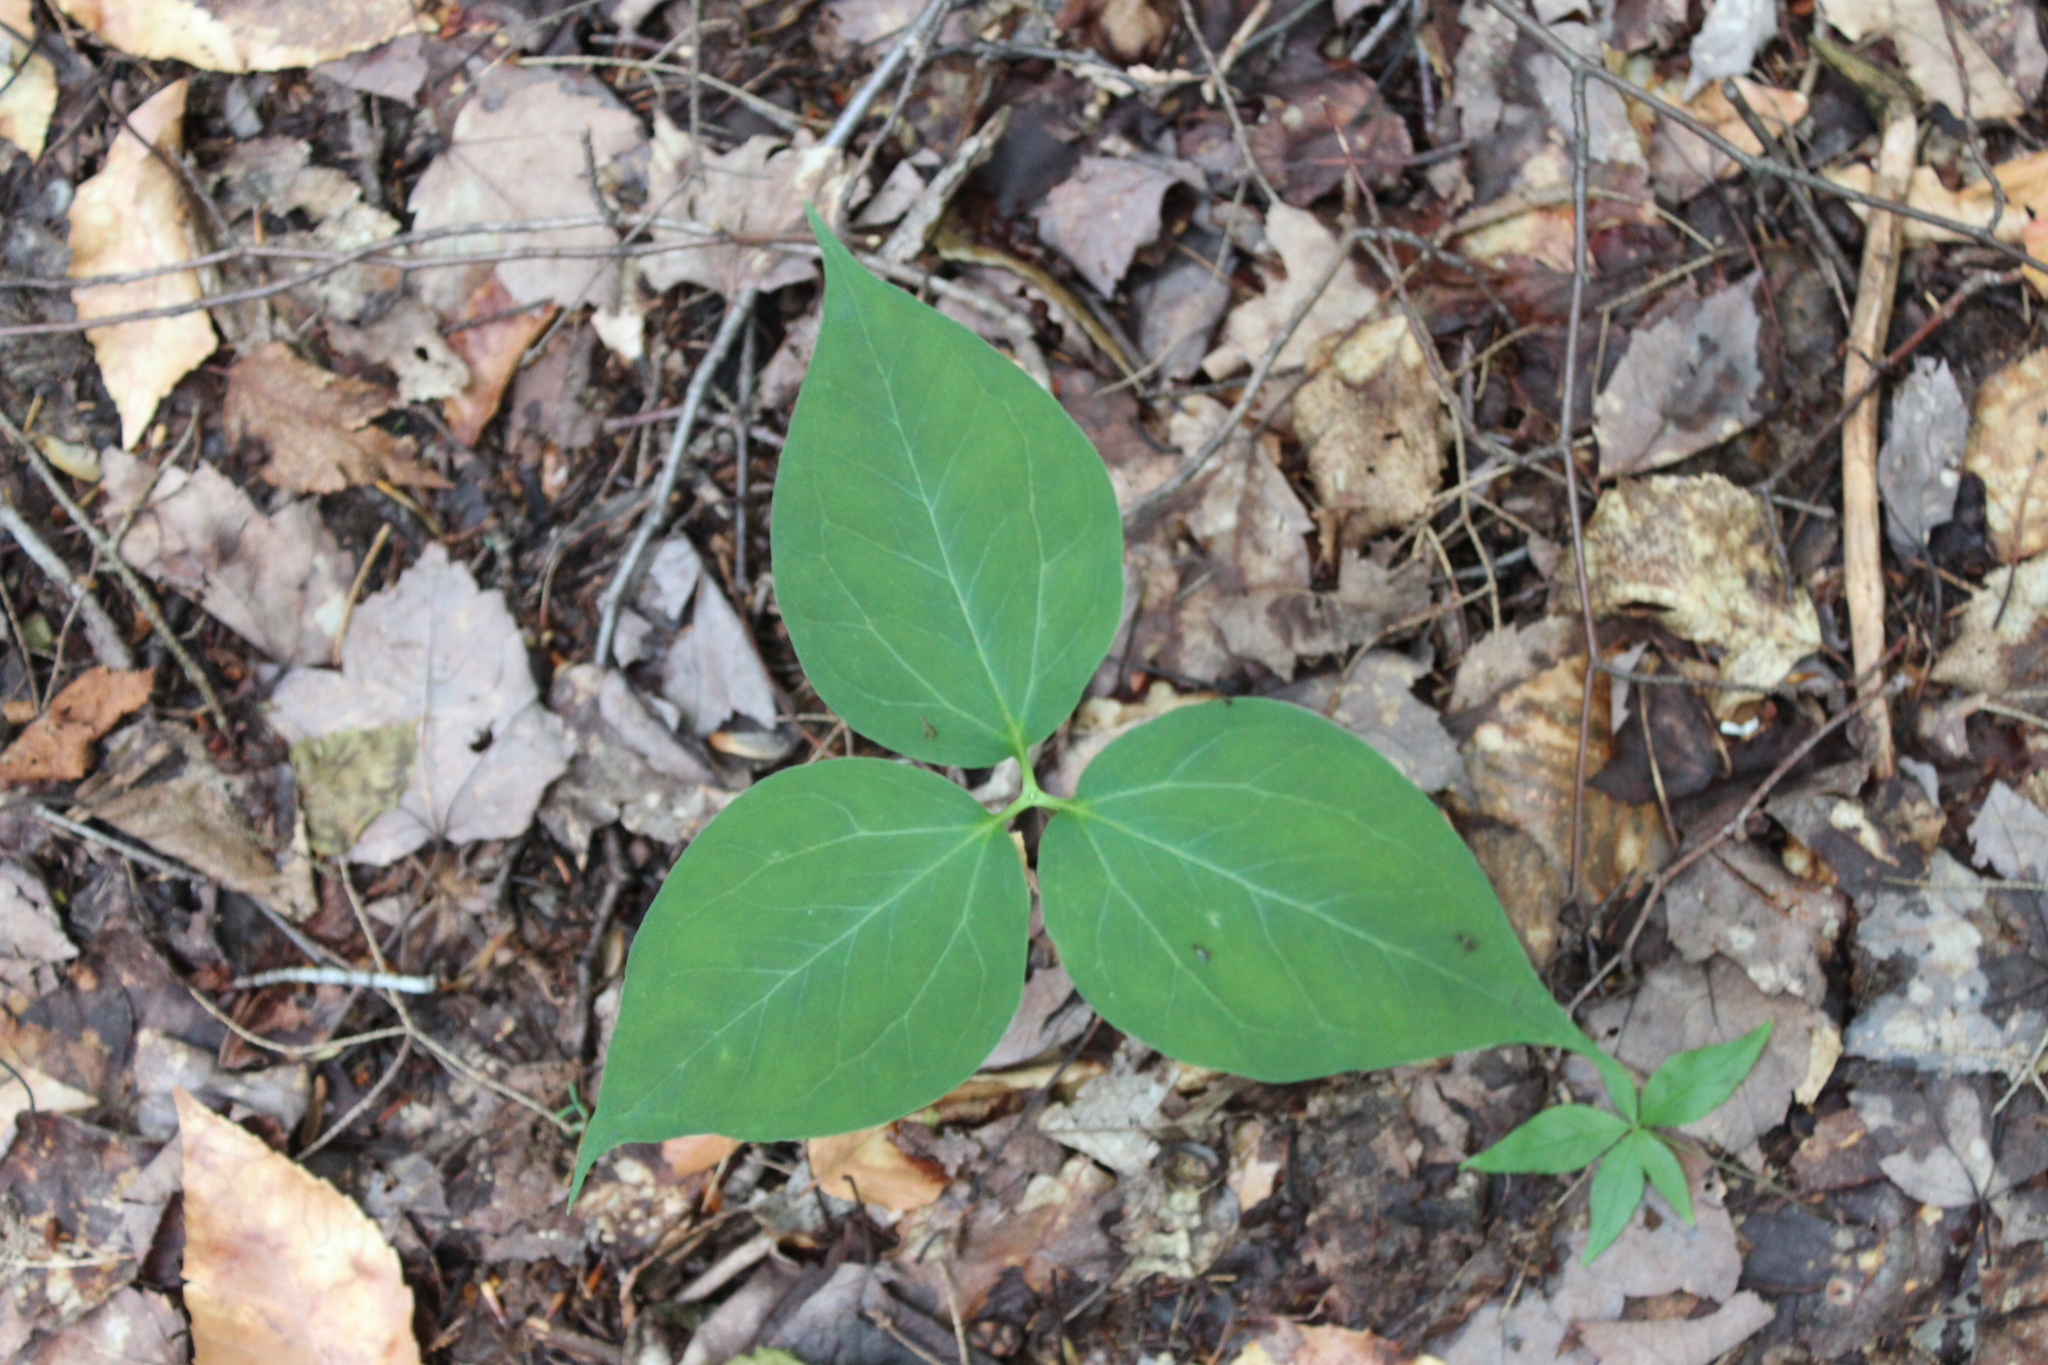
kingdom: Plantae
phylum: Tracheophyta
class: Liliopsida
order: Liliales
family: Melanthiaceae
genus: Trillium
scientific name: Trillium undulatum
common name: Paint trillium
